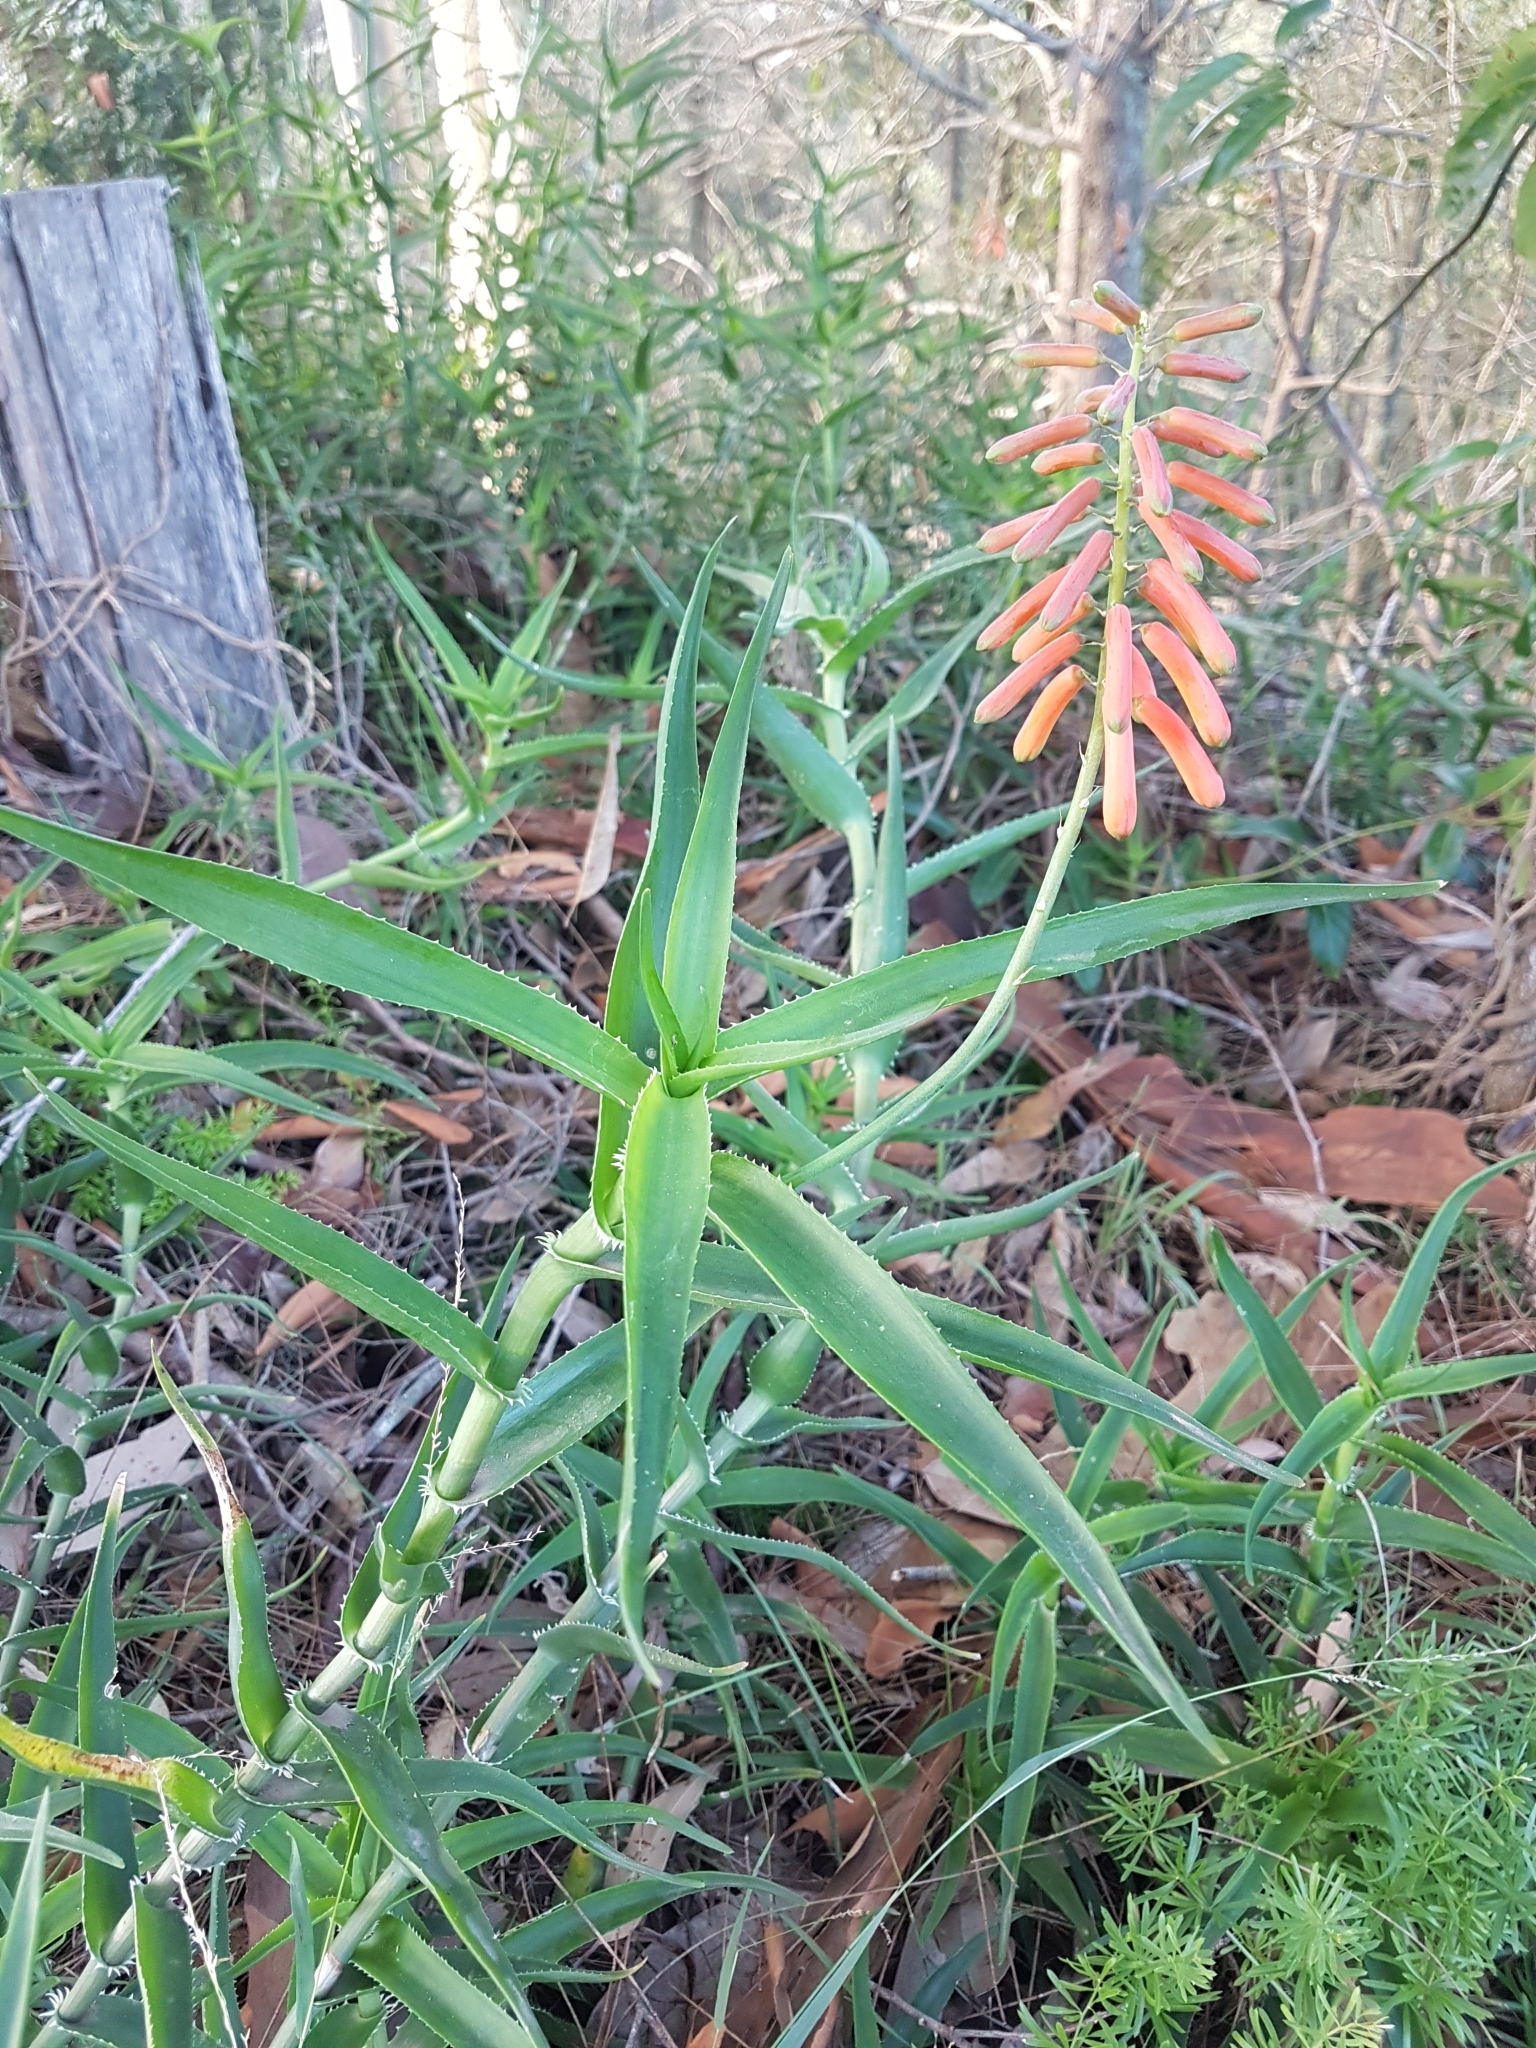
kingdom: Plantae
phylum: Tracheophyta
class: Liliopsida
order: Asparagales
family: Asphodelaceae
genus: Aloiampelos
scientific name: Aloiampelos ciliaris
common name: Climbing aloe
